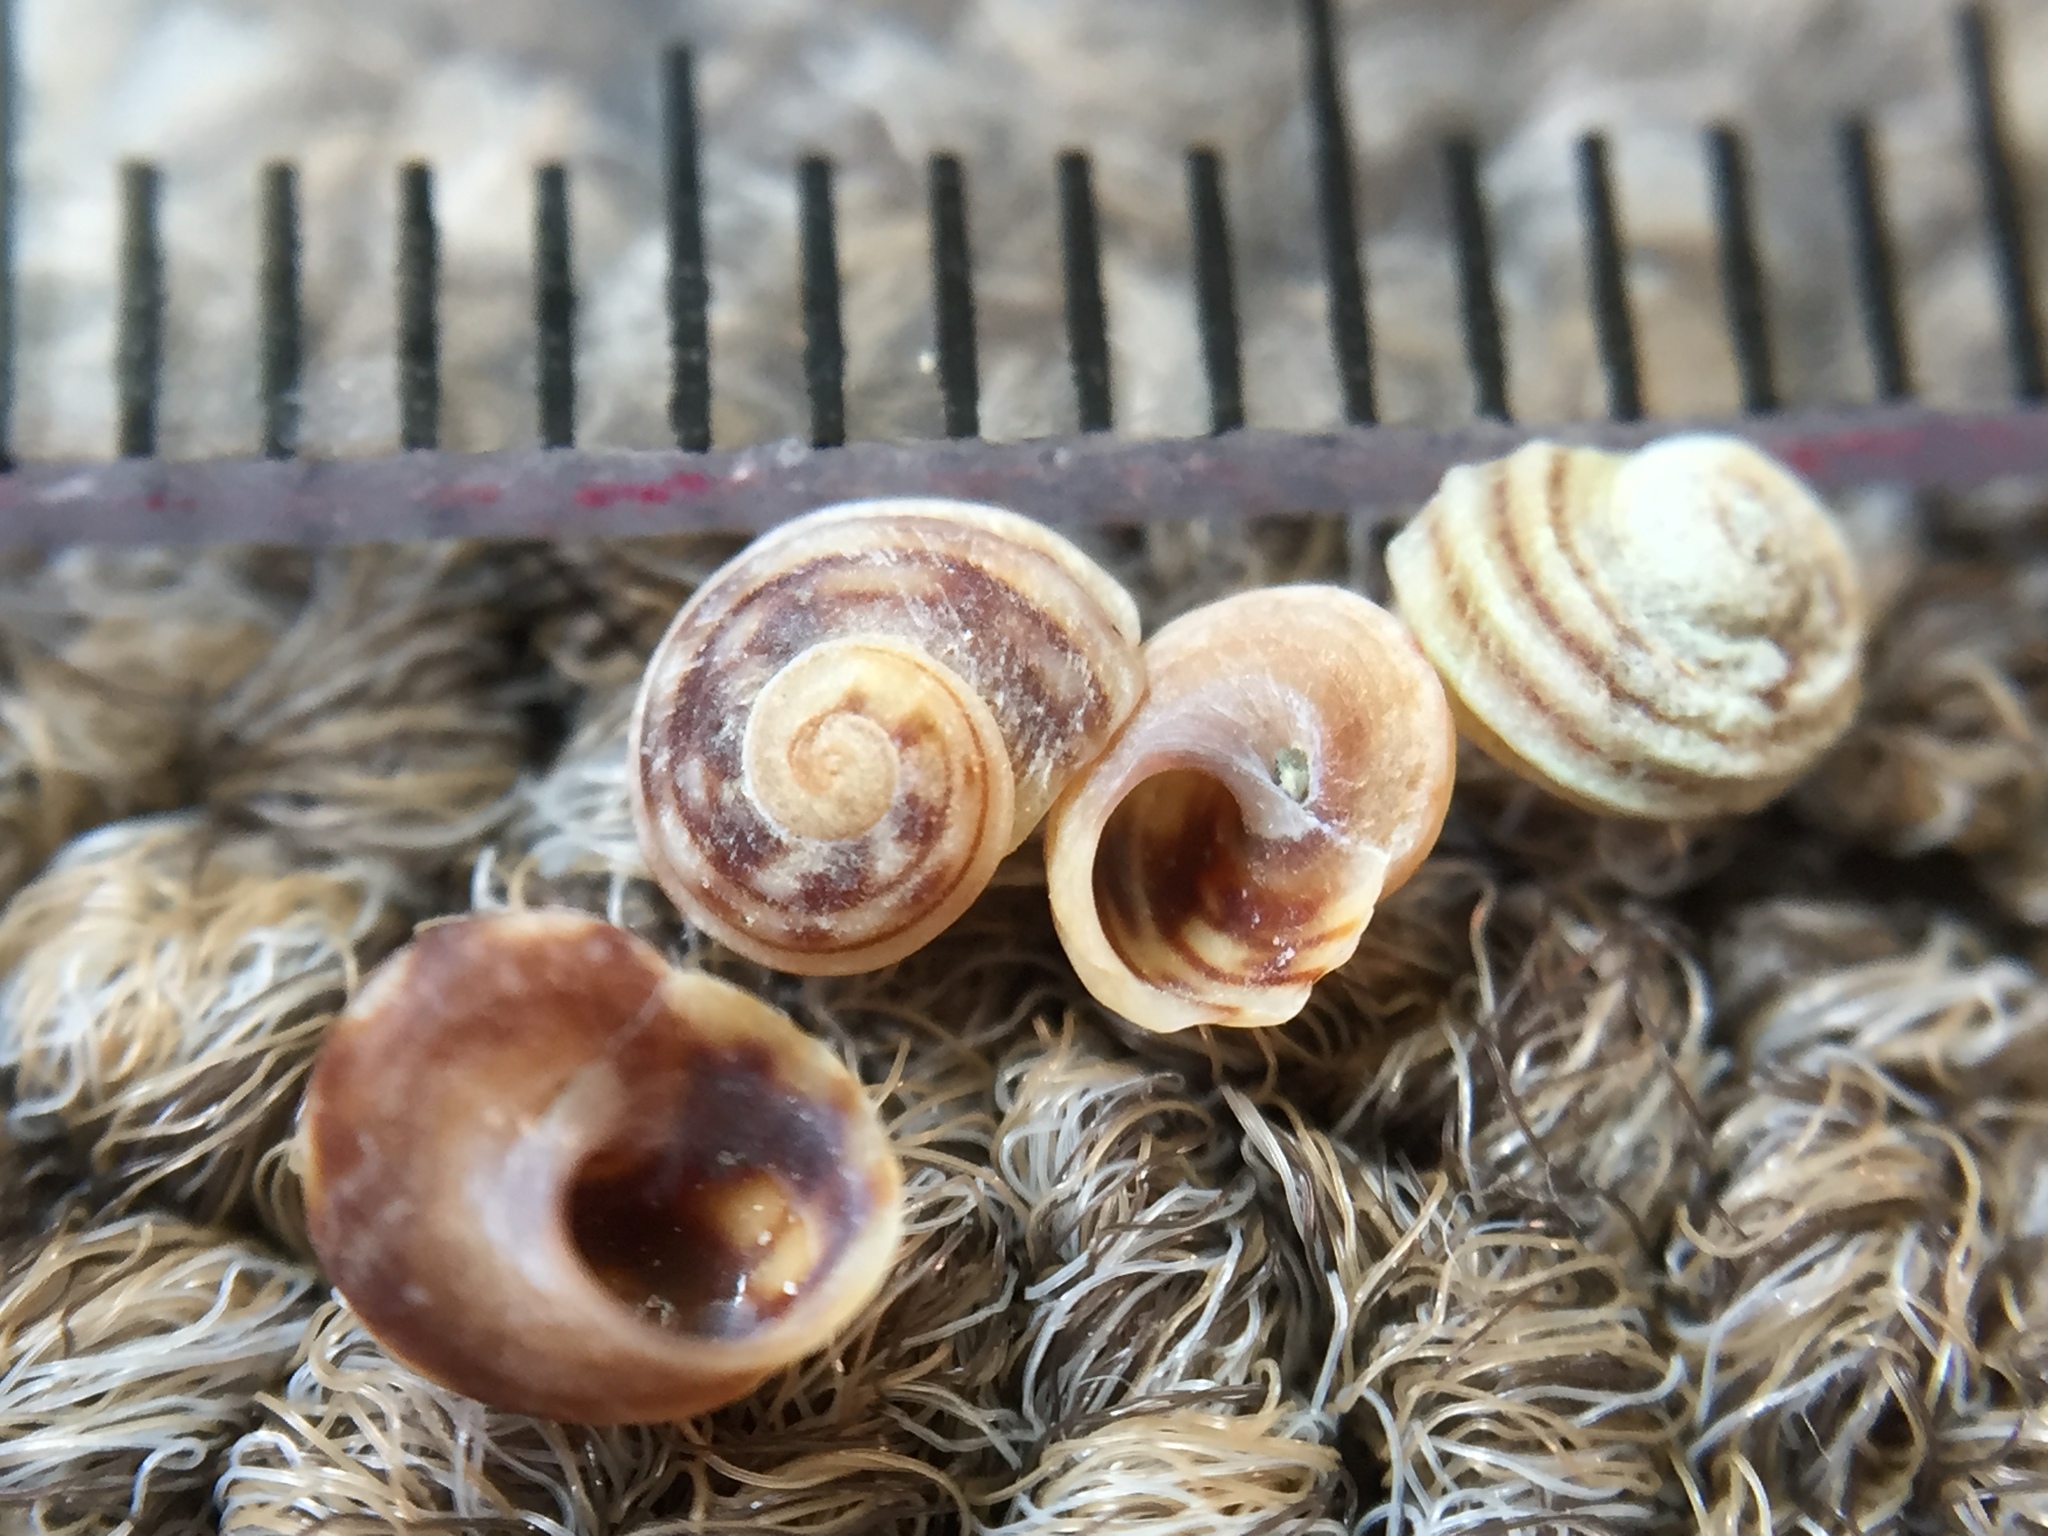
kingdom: Animalia
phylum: Mollusca
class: Gastropoda
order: Littorinimorpha
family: Littorinidae
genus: Risellopsis
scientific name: Risellopsis varia
